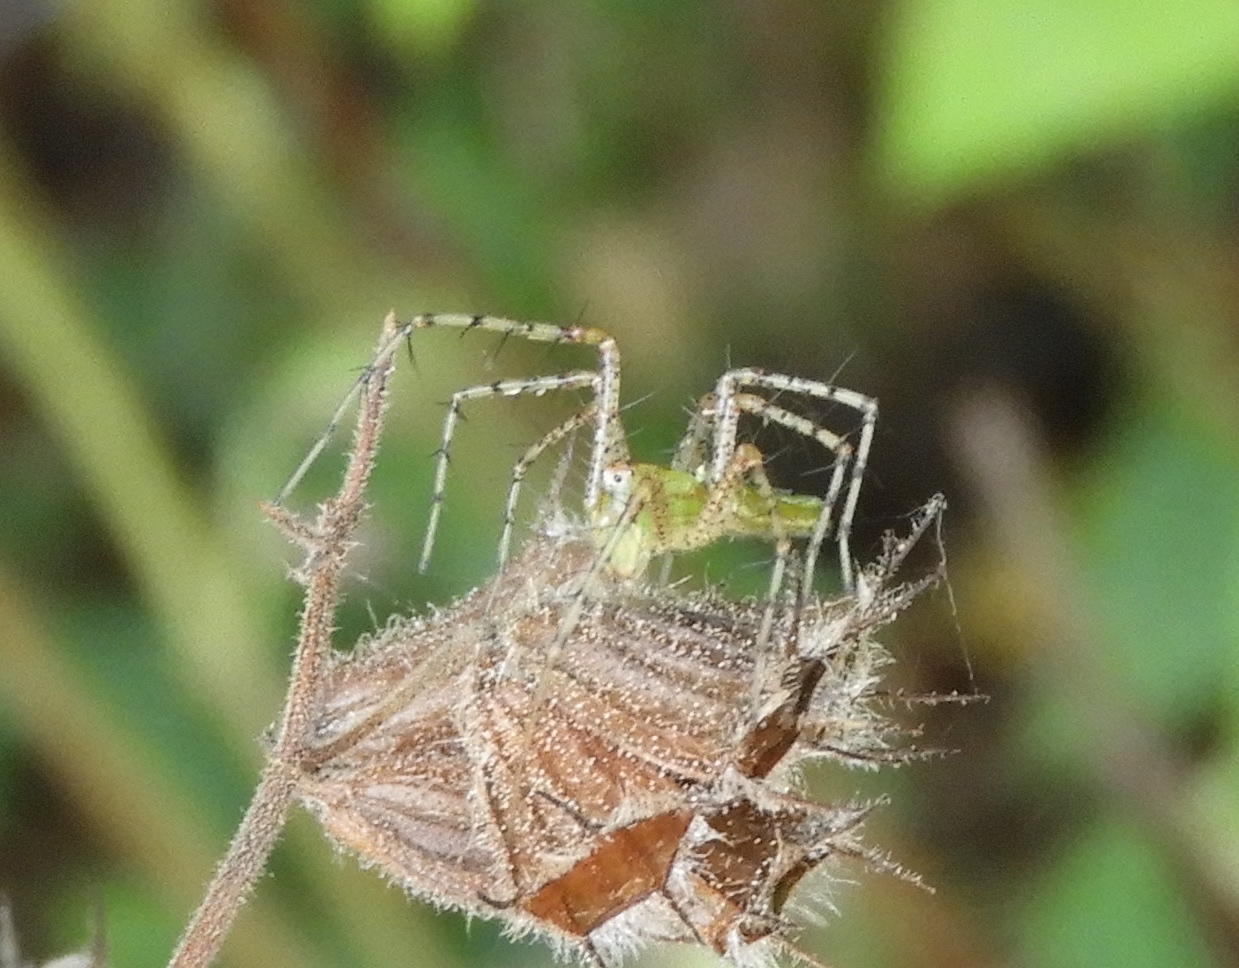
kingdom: Animalia
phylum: Arthropoda
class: Arachnida
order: Araneae
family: Oxyopidae
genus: Peucetia
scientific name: Peucetia
